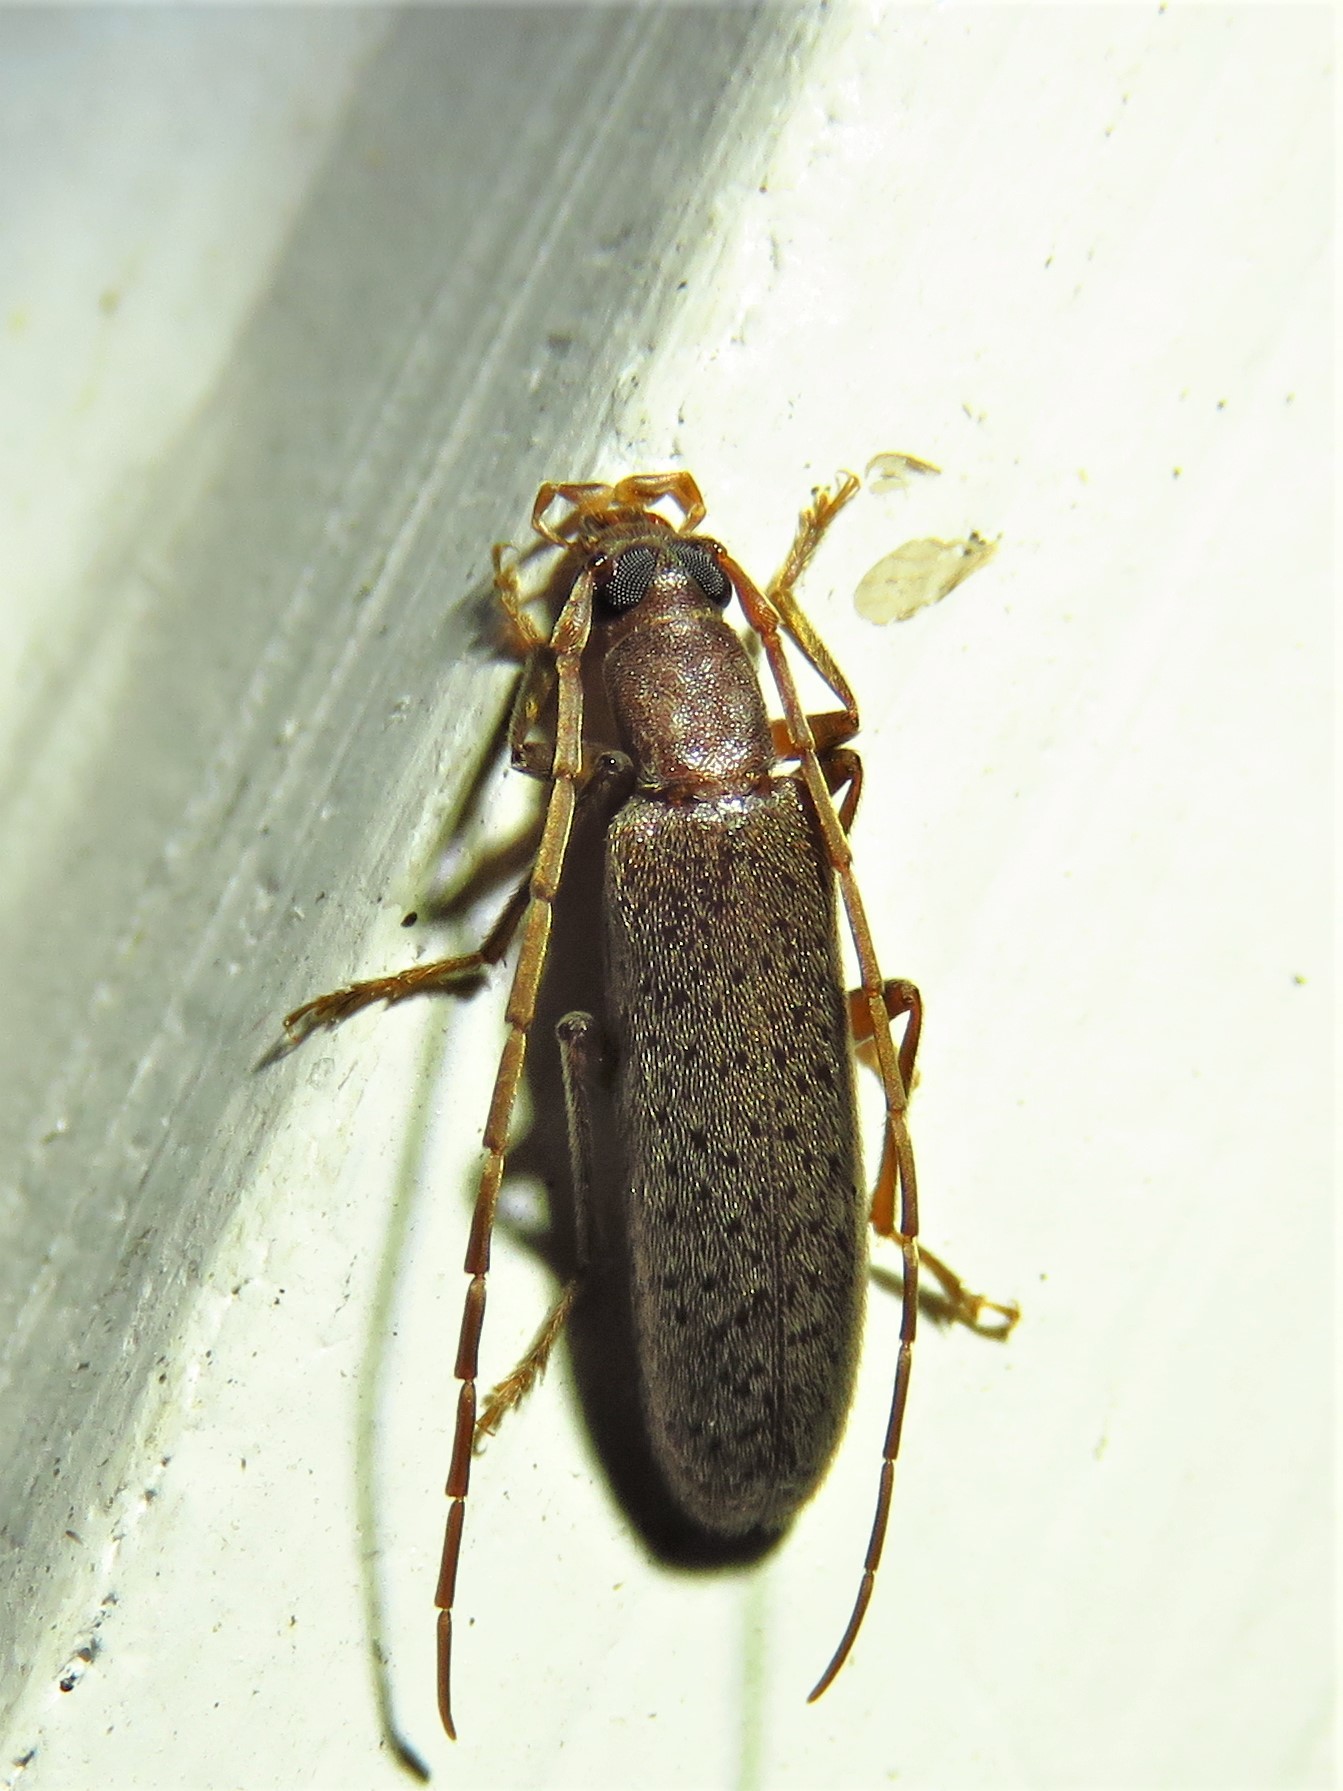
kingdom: Animalia
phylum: Arthropoda
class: Insecta
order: Coleoptera
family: Oedemeridae
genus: Sparedrus
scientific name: Sparedrus aspersus
